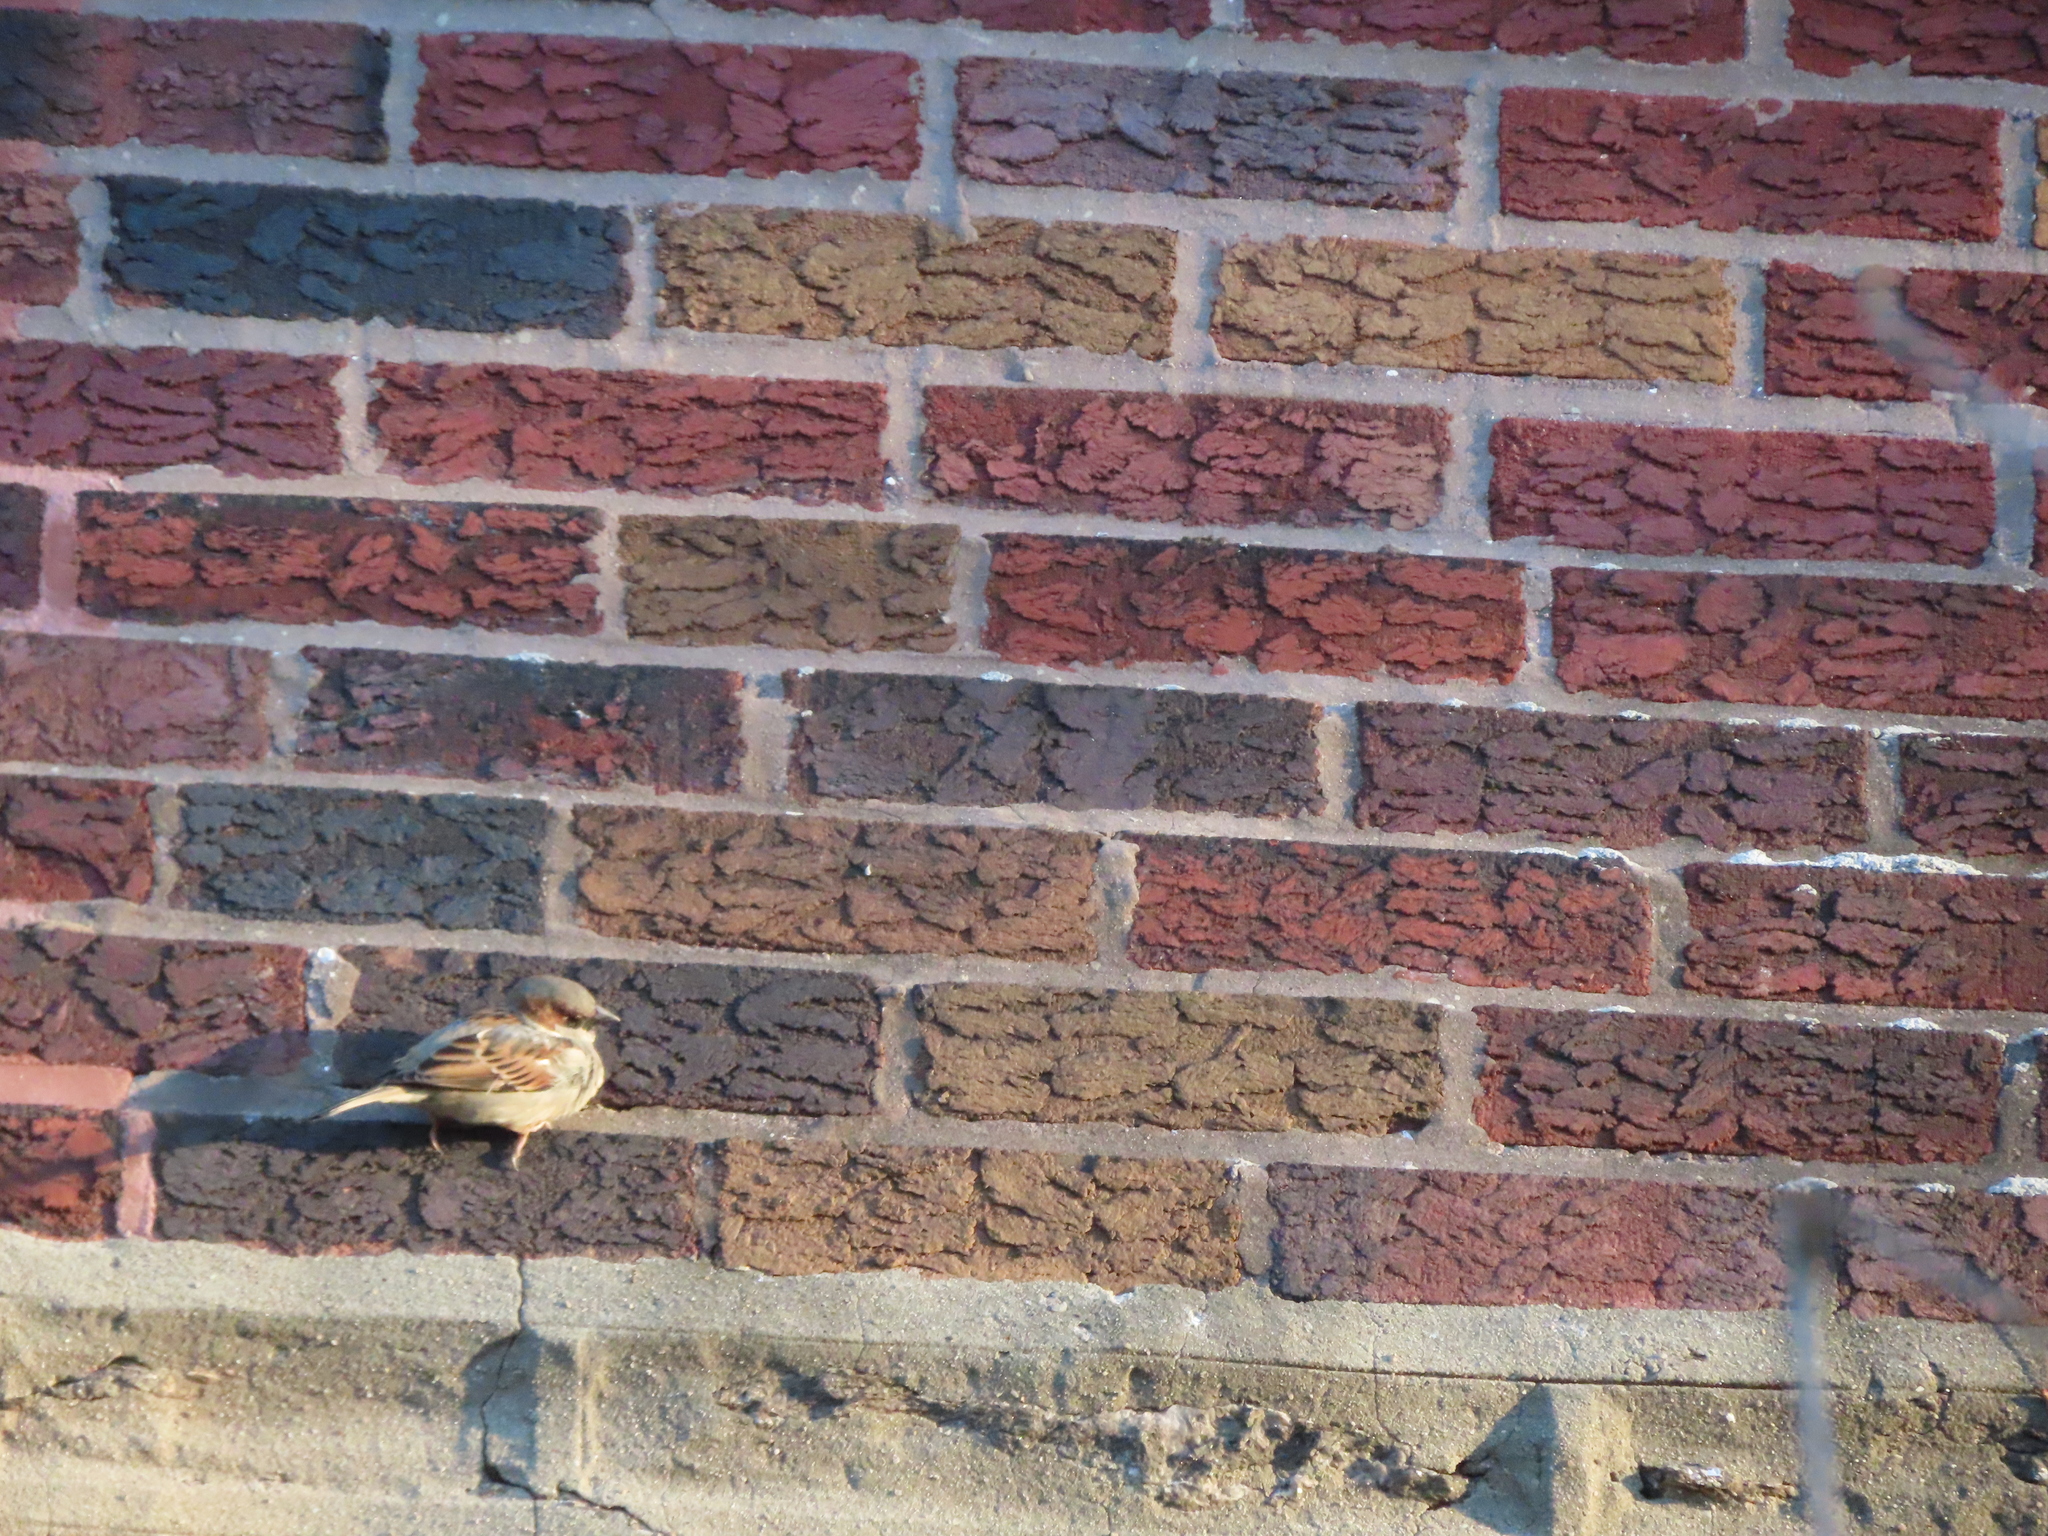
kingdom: Animalia
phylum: Chordata
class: Aves
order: Passeriformes
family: Passeridae
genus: Passer
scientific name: Passer domesticus
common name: House sparrow
